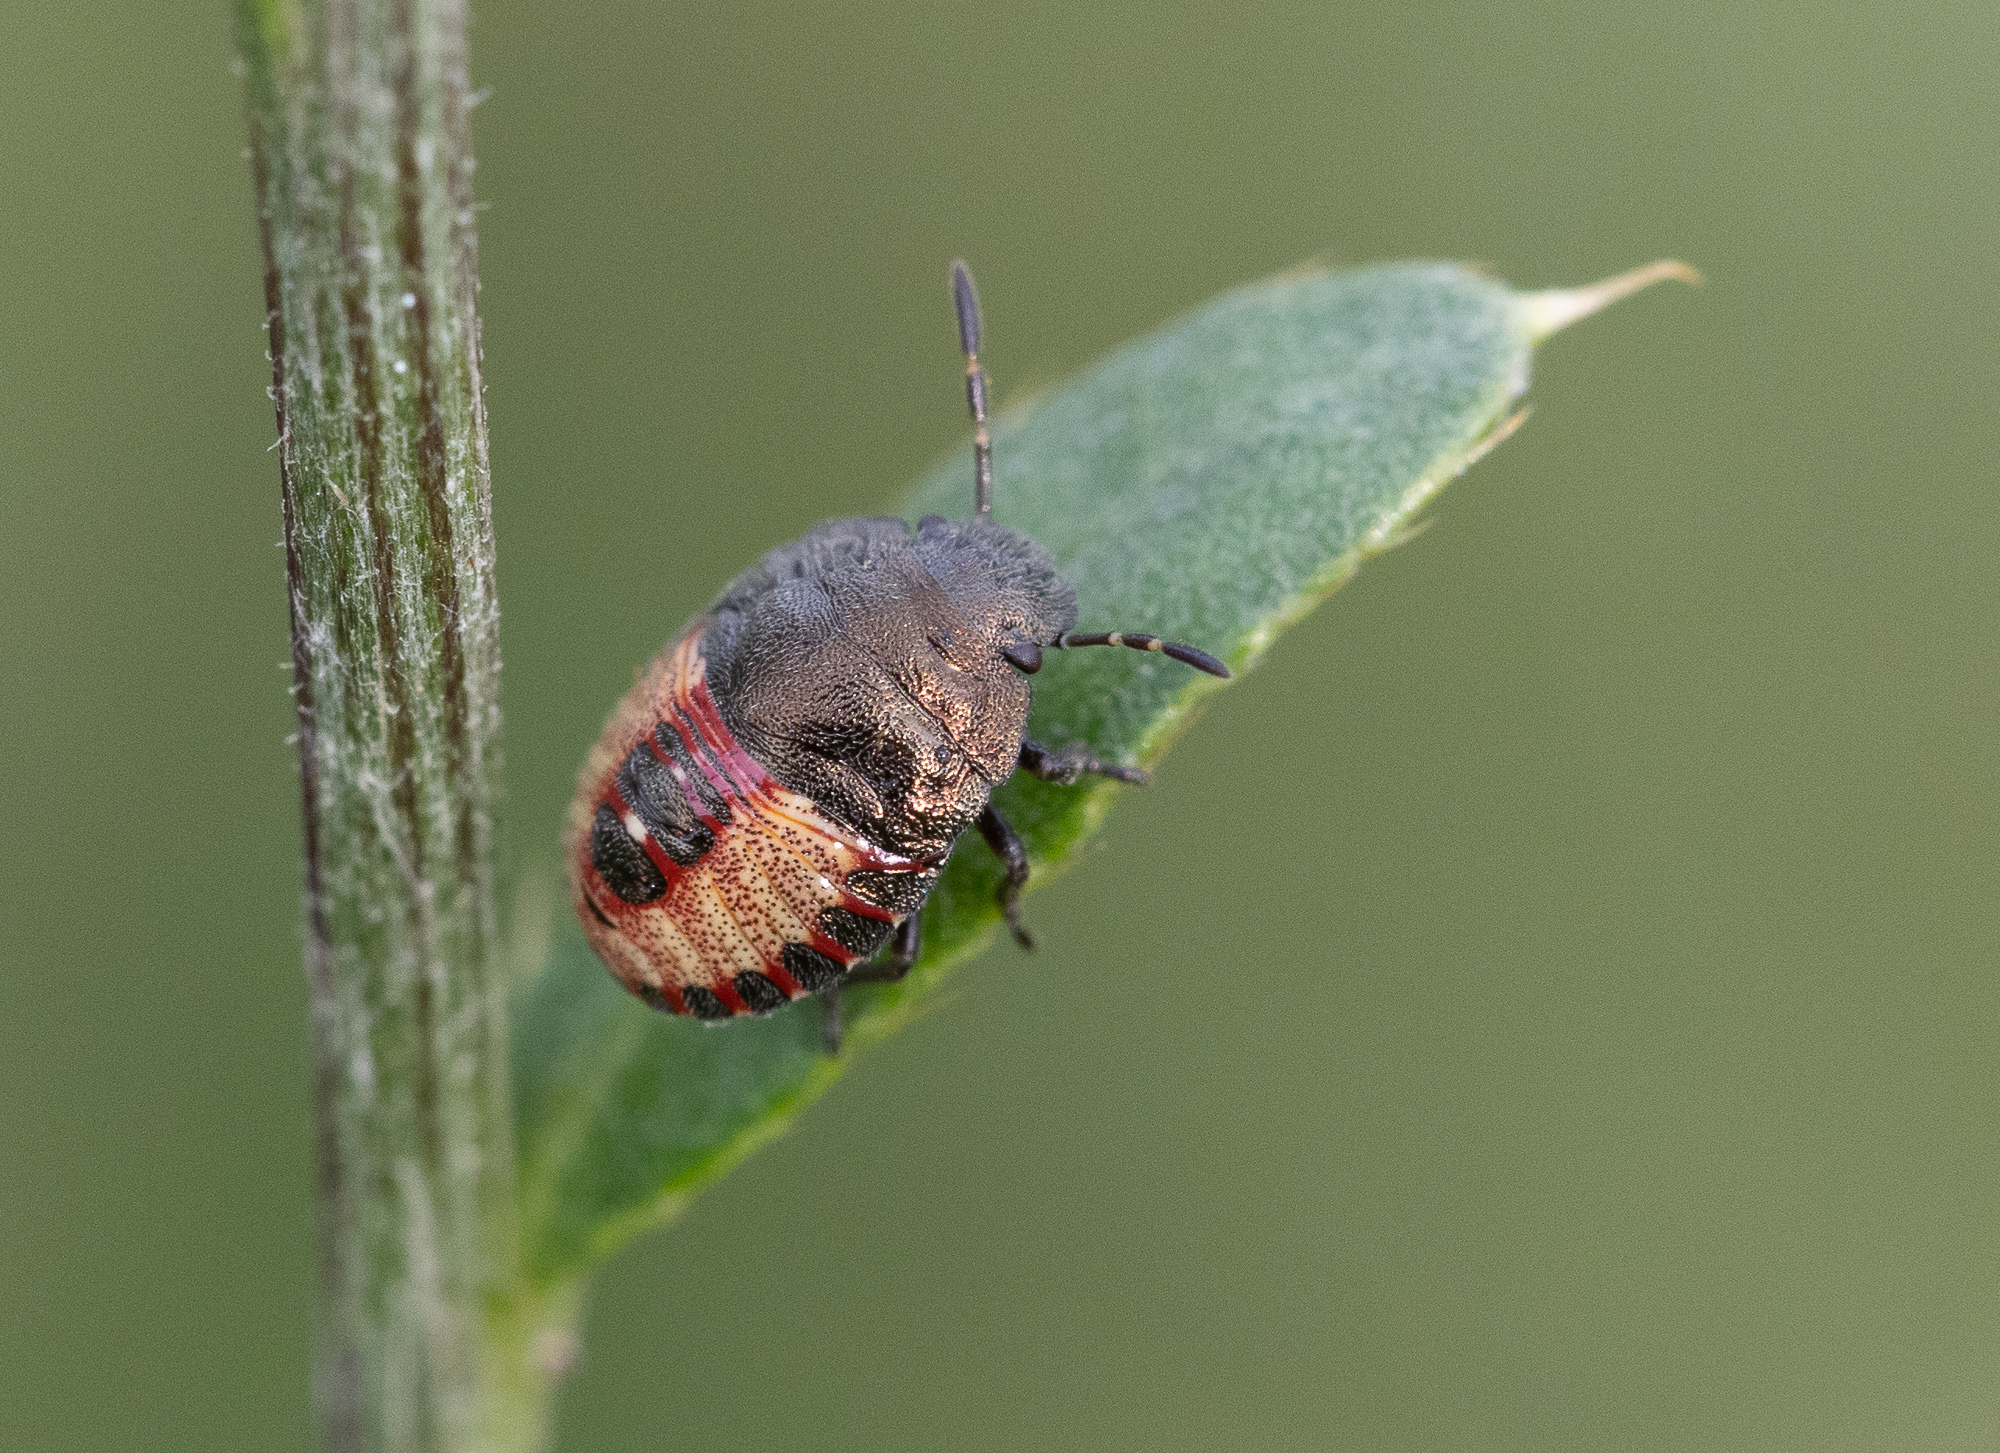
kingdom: Animalia
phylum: Arthropoda
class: Insecta
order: Hemiptera
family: Pentatomidae
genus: Holcostethus
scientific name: Holcostethus strictus
